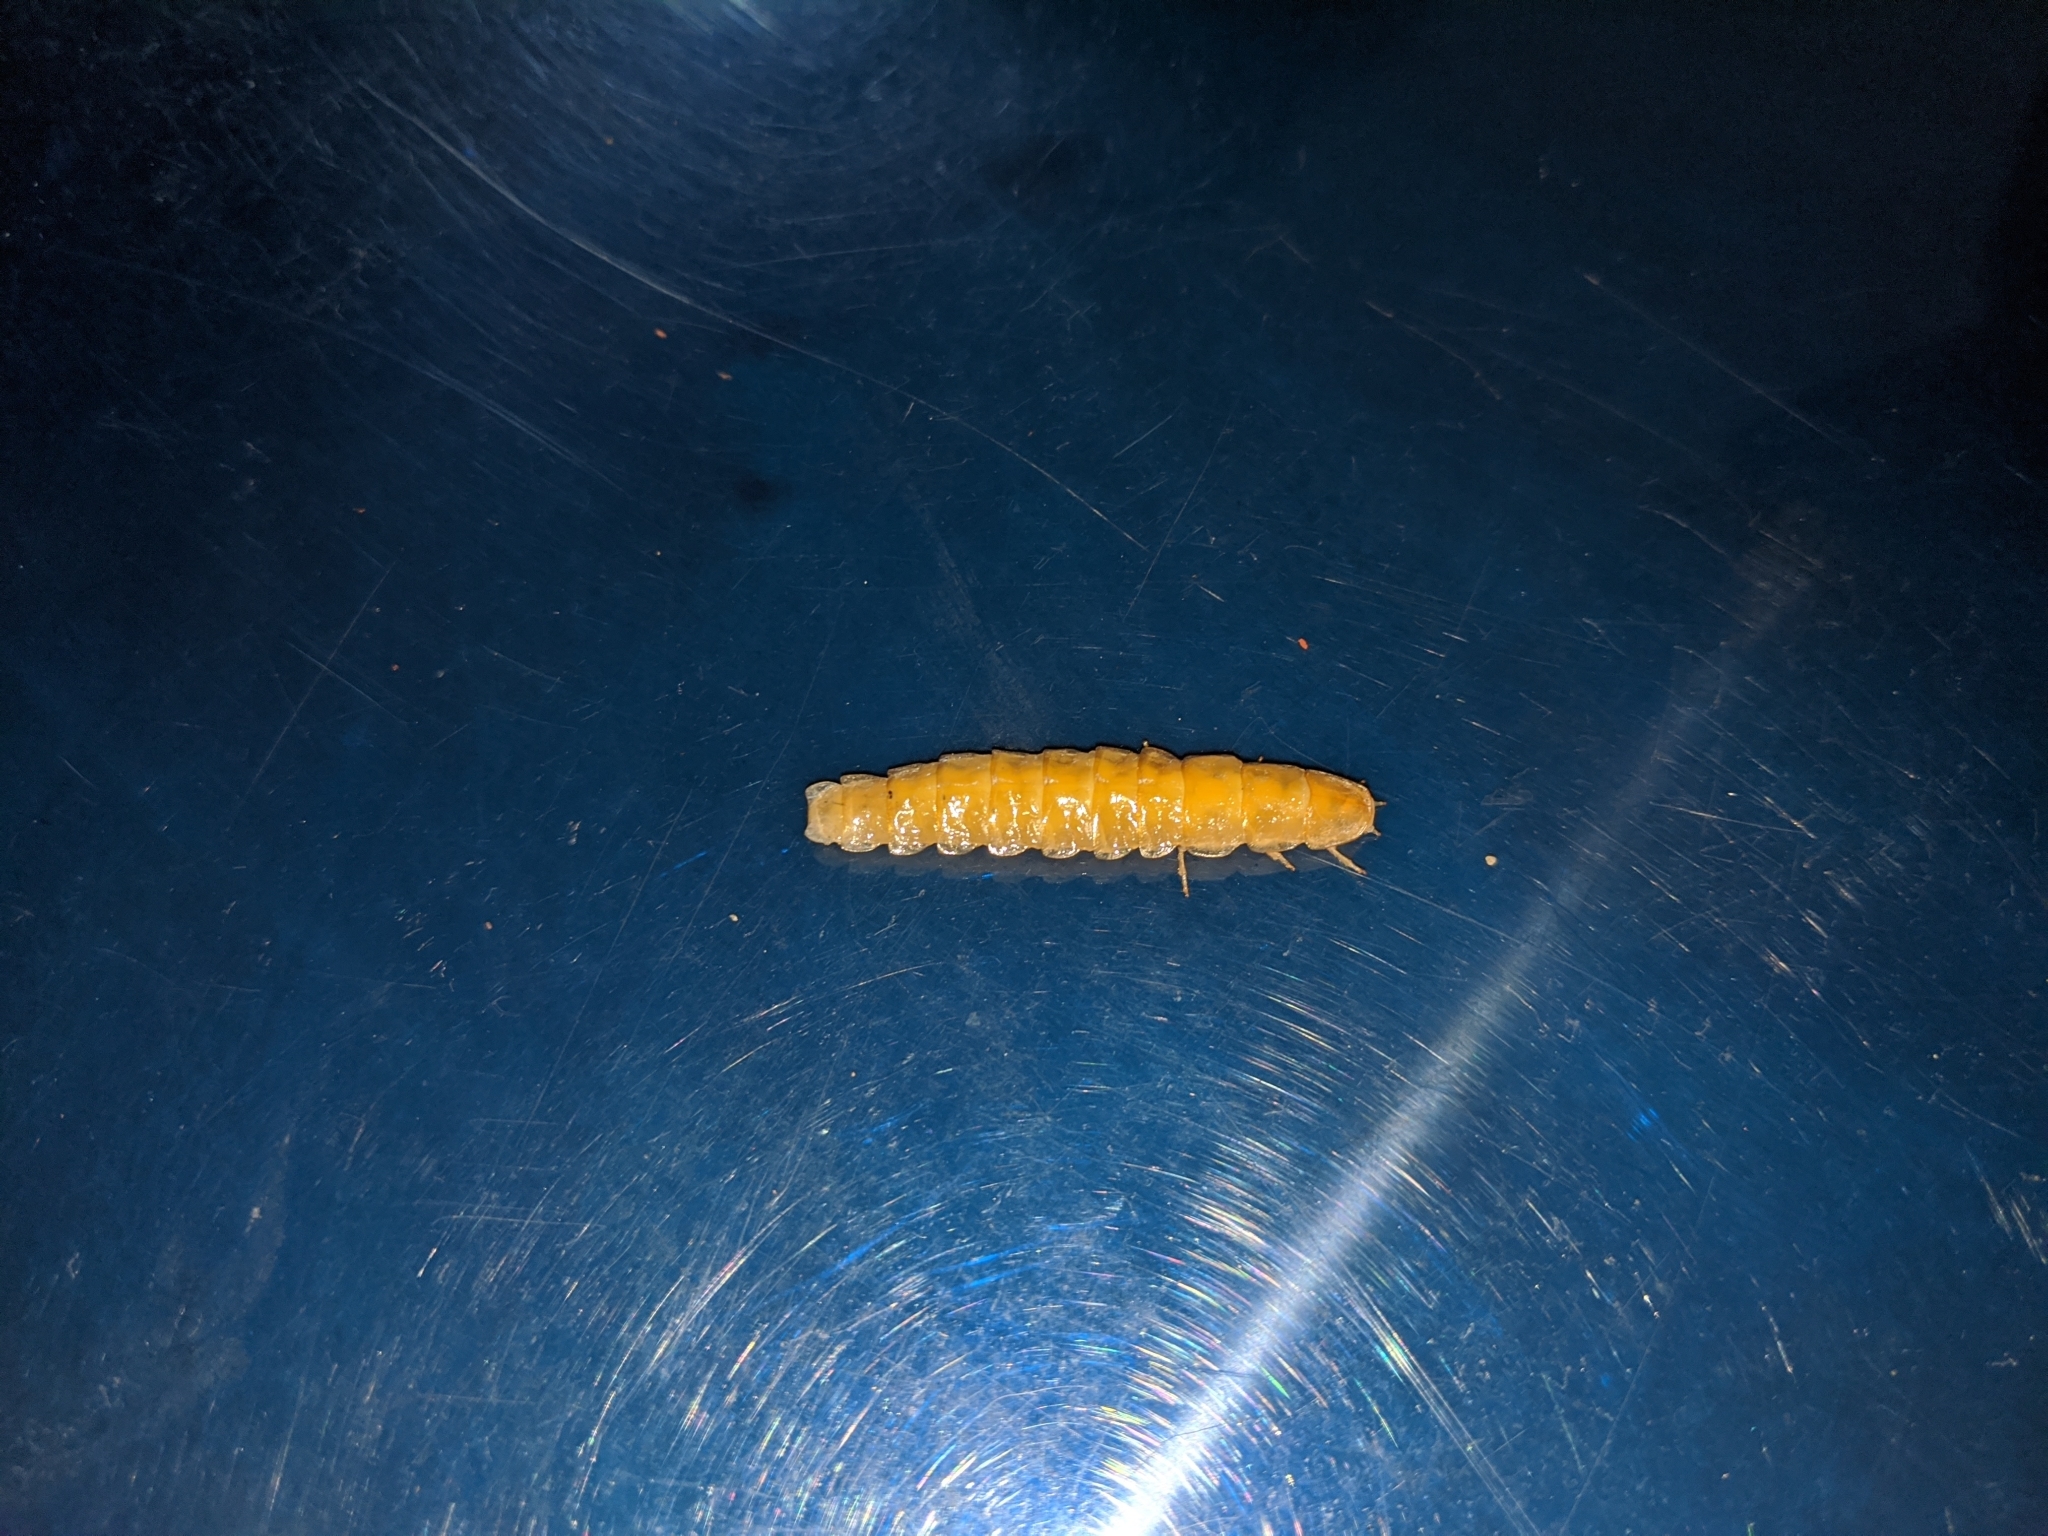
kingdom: Animalia
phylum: Arthropoda
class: Insecta
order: Coleoptera
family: Lampyridae
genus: Lamprigera
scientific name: Lamprigera yunnana
